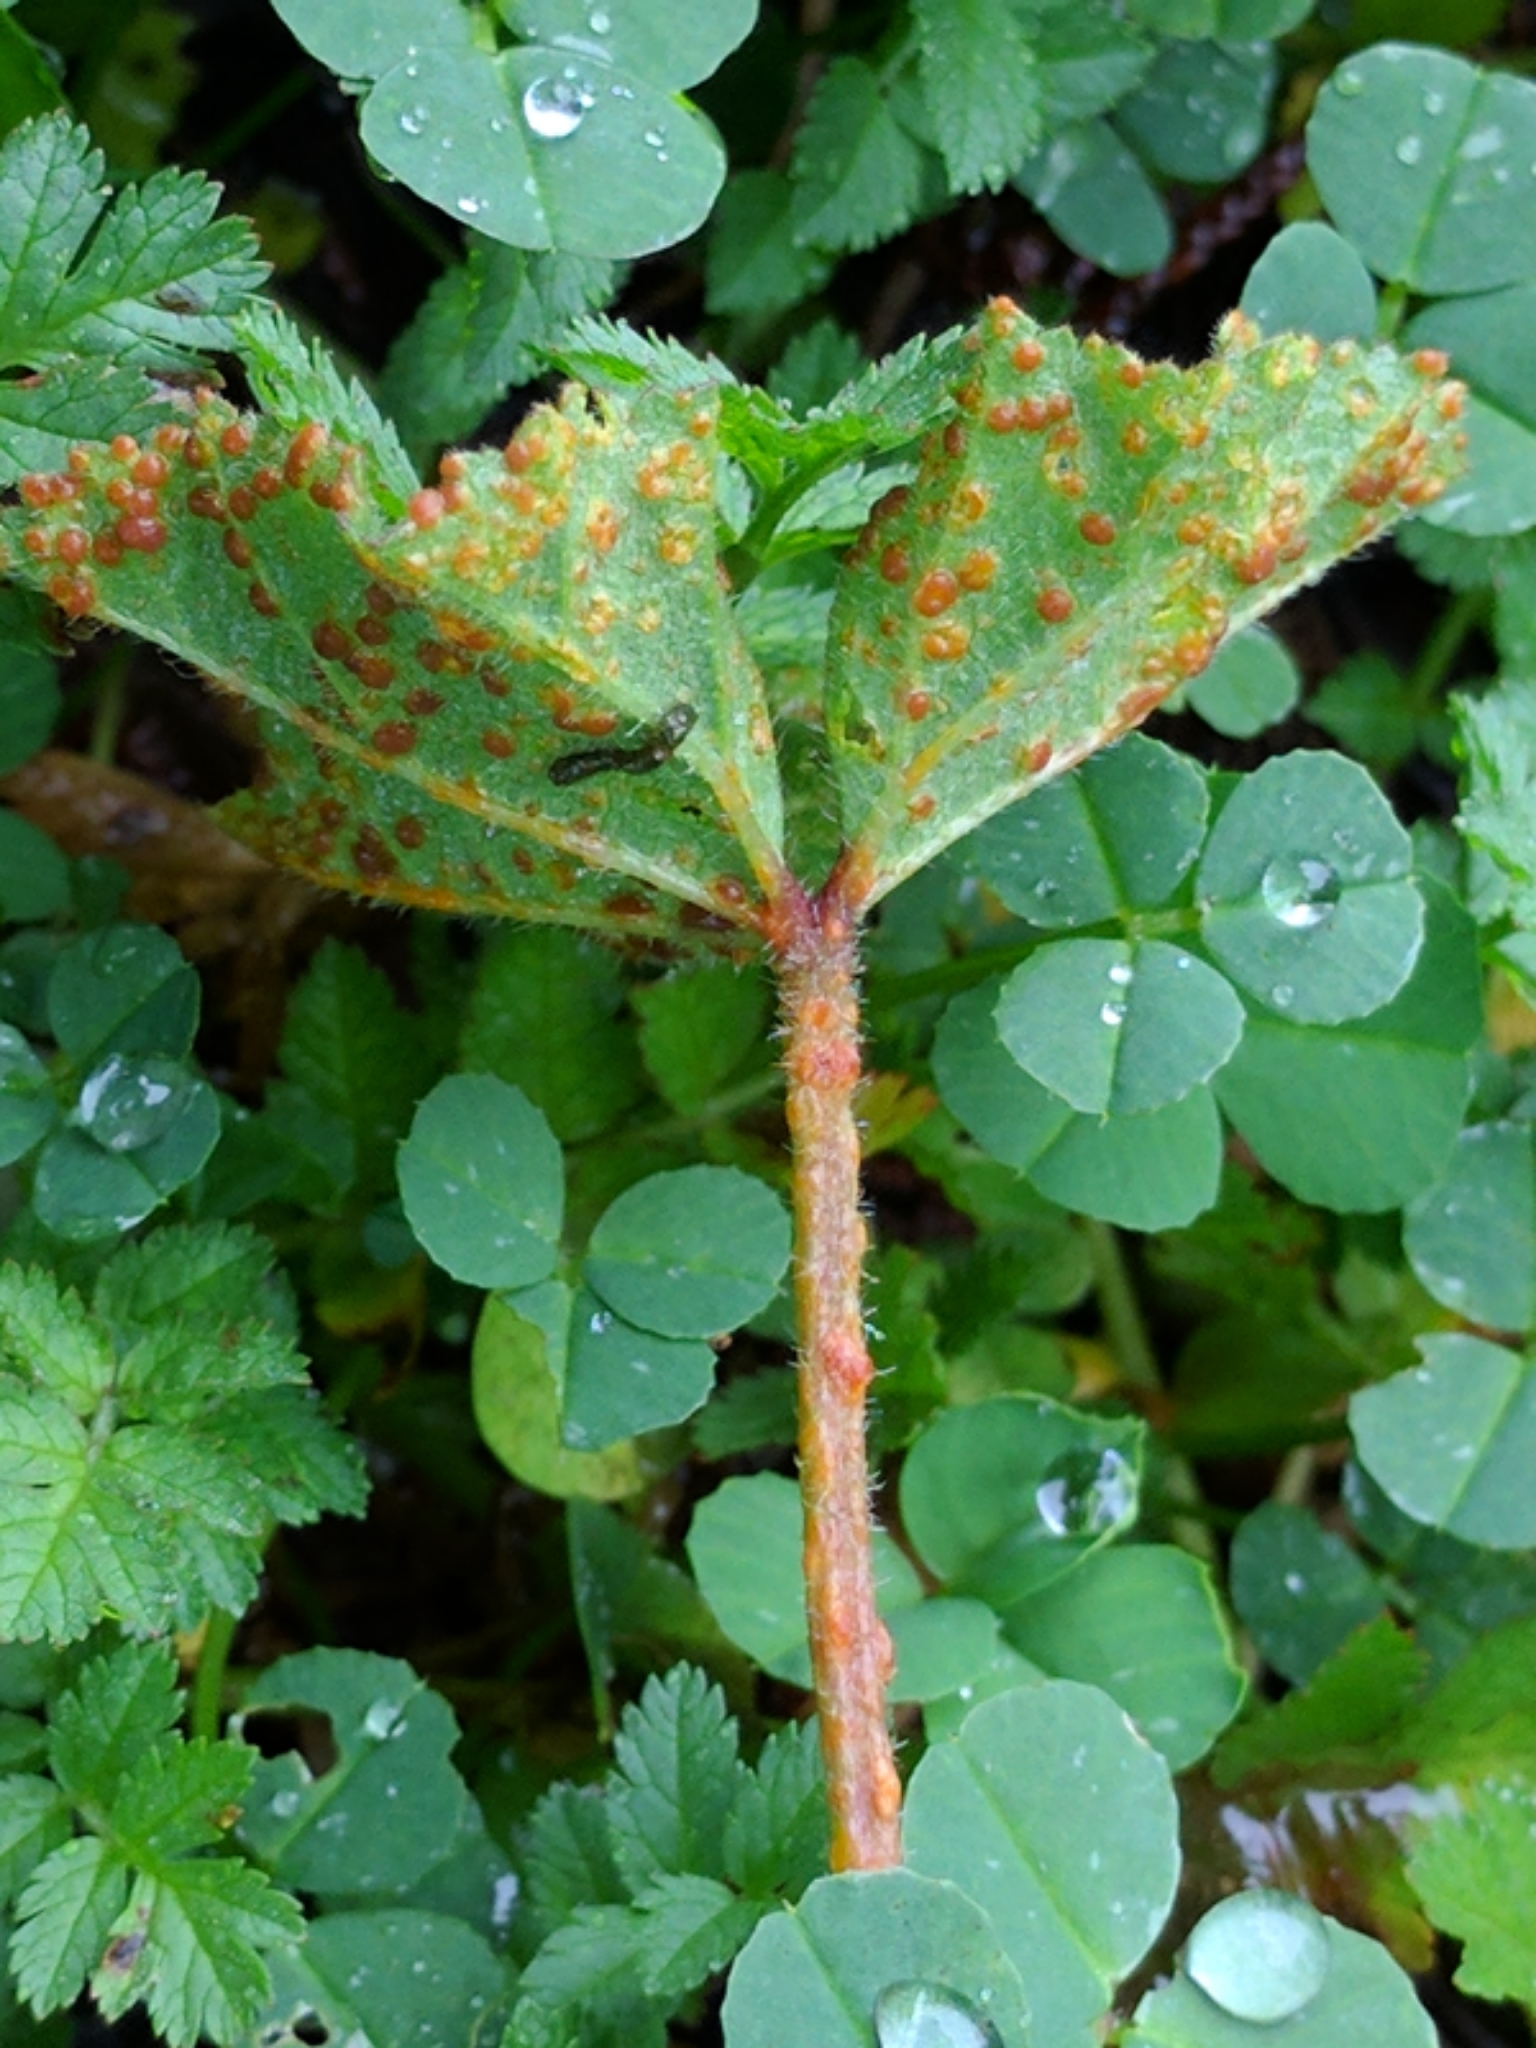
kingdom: Fungi
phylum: Basidiomycota
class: Pucciniomycetes
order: Pucciniales
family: Pucciniaceae
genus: Puccinia
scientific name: Puccinia malvacearum
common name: Hollyhock rust
